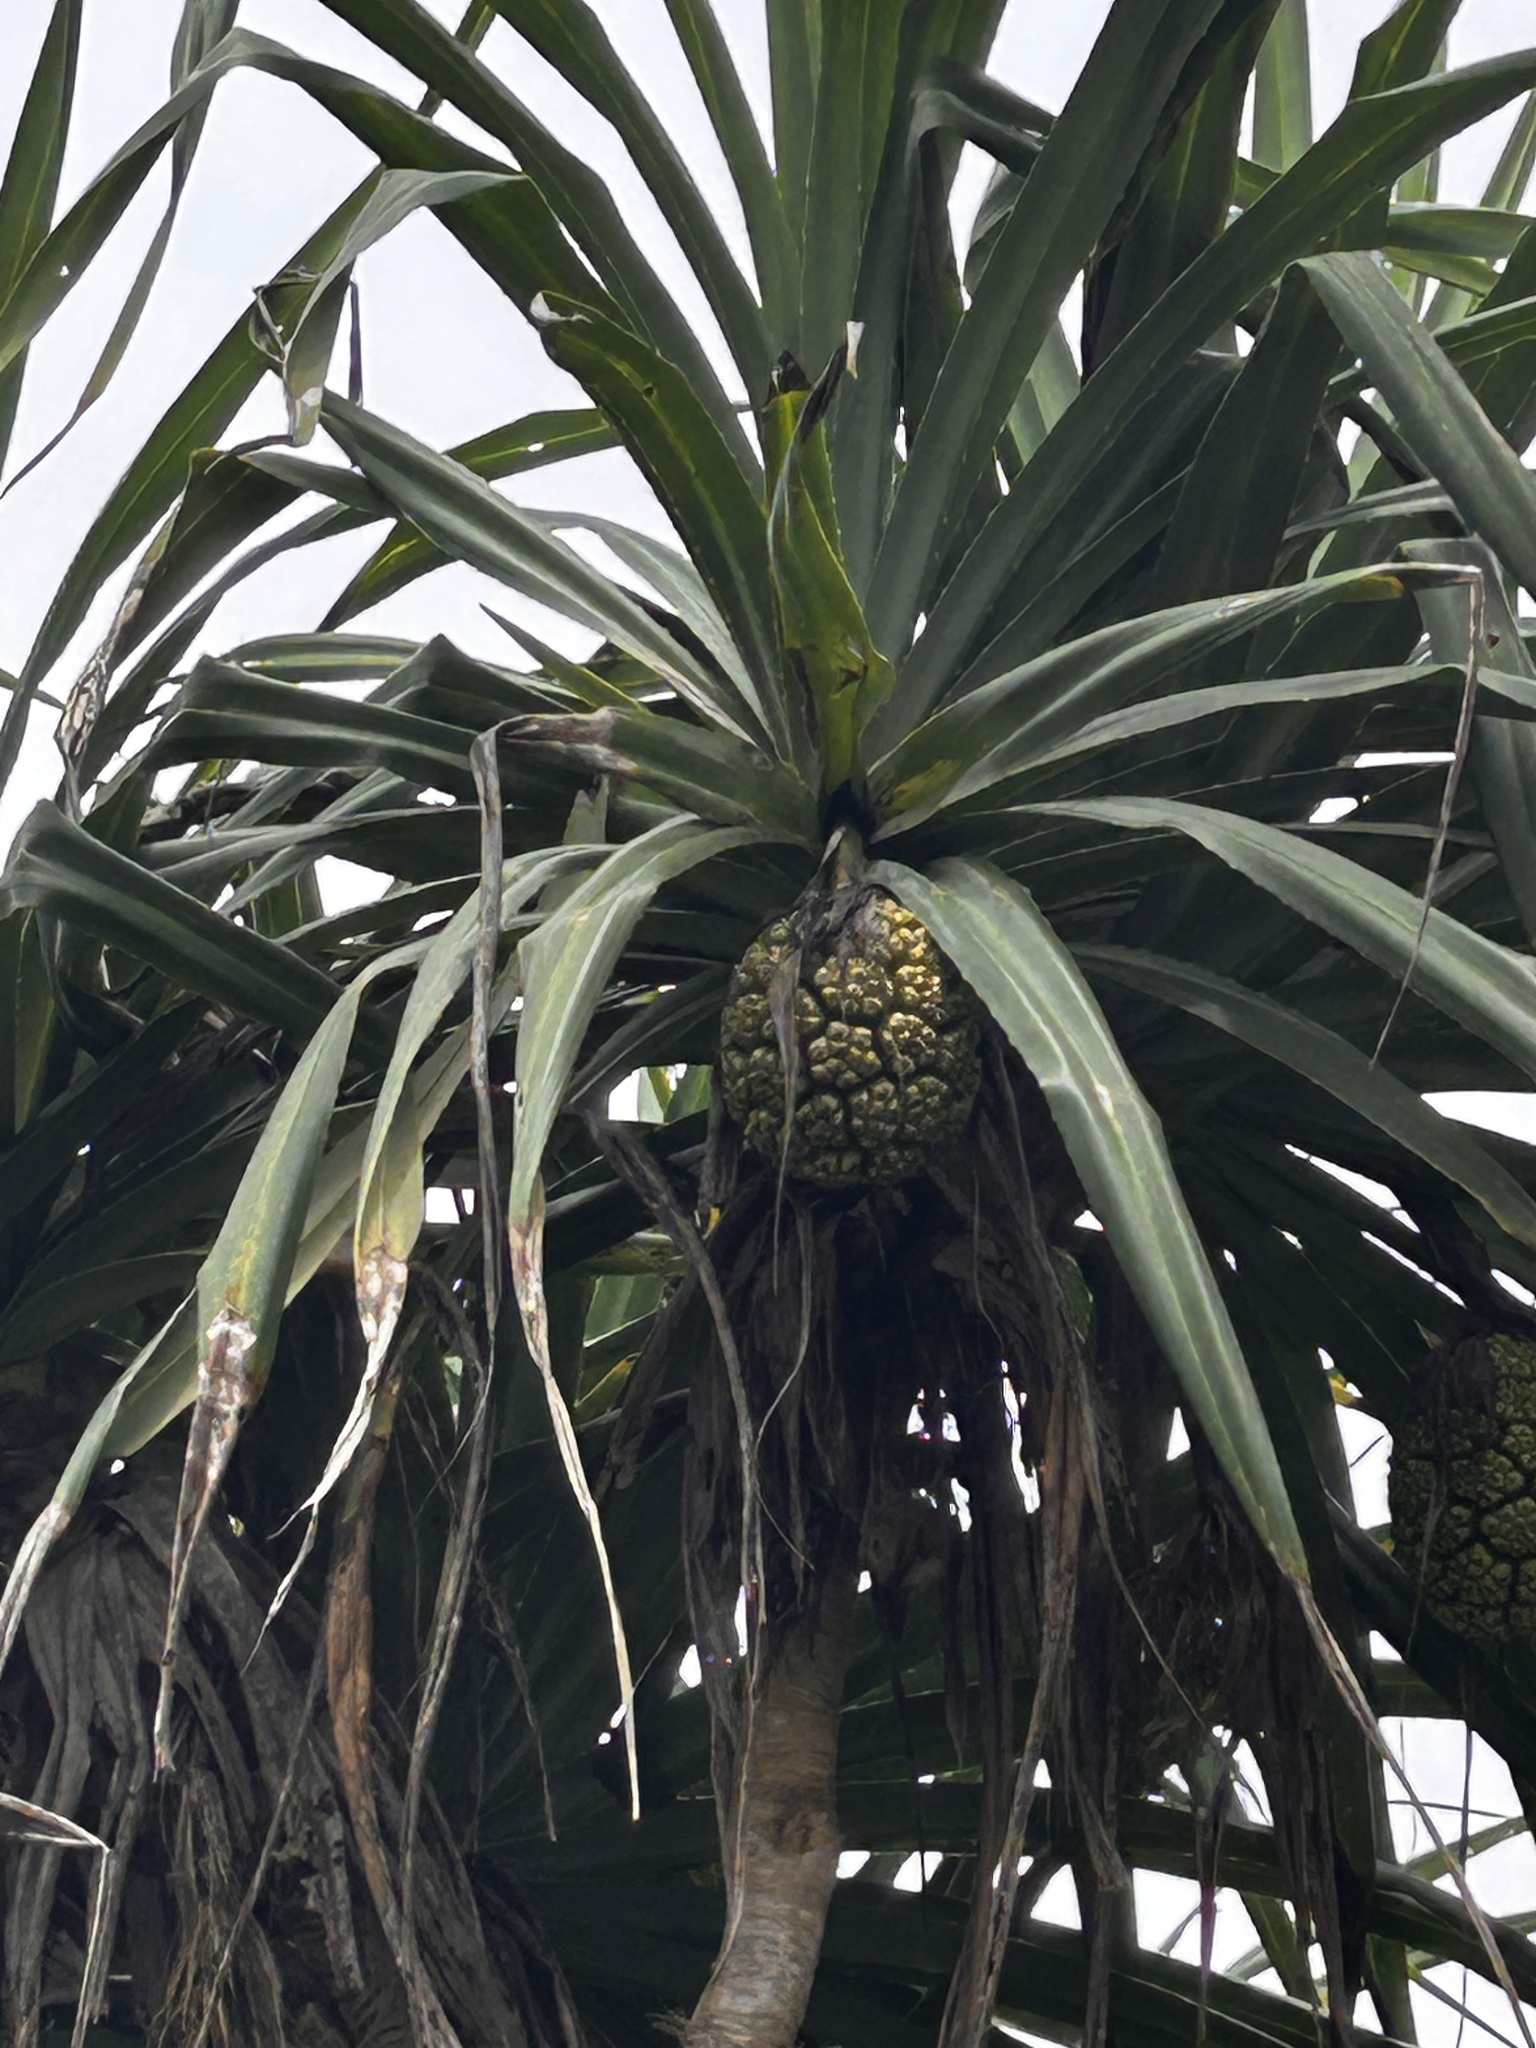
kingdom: Plantae
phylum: Tracheophyta
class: Liliopsida
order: Pandanales
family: Pandanaceae
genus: Pandanus
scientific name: Pandanus odorifer
